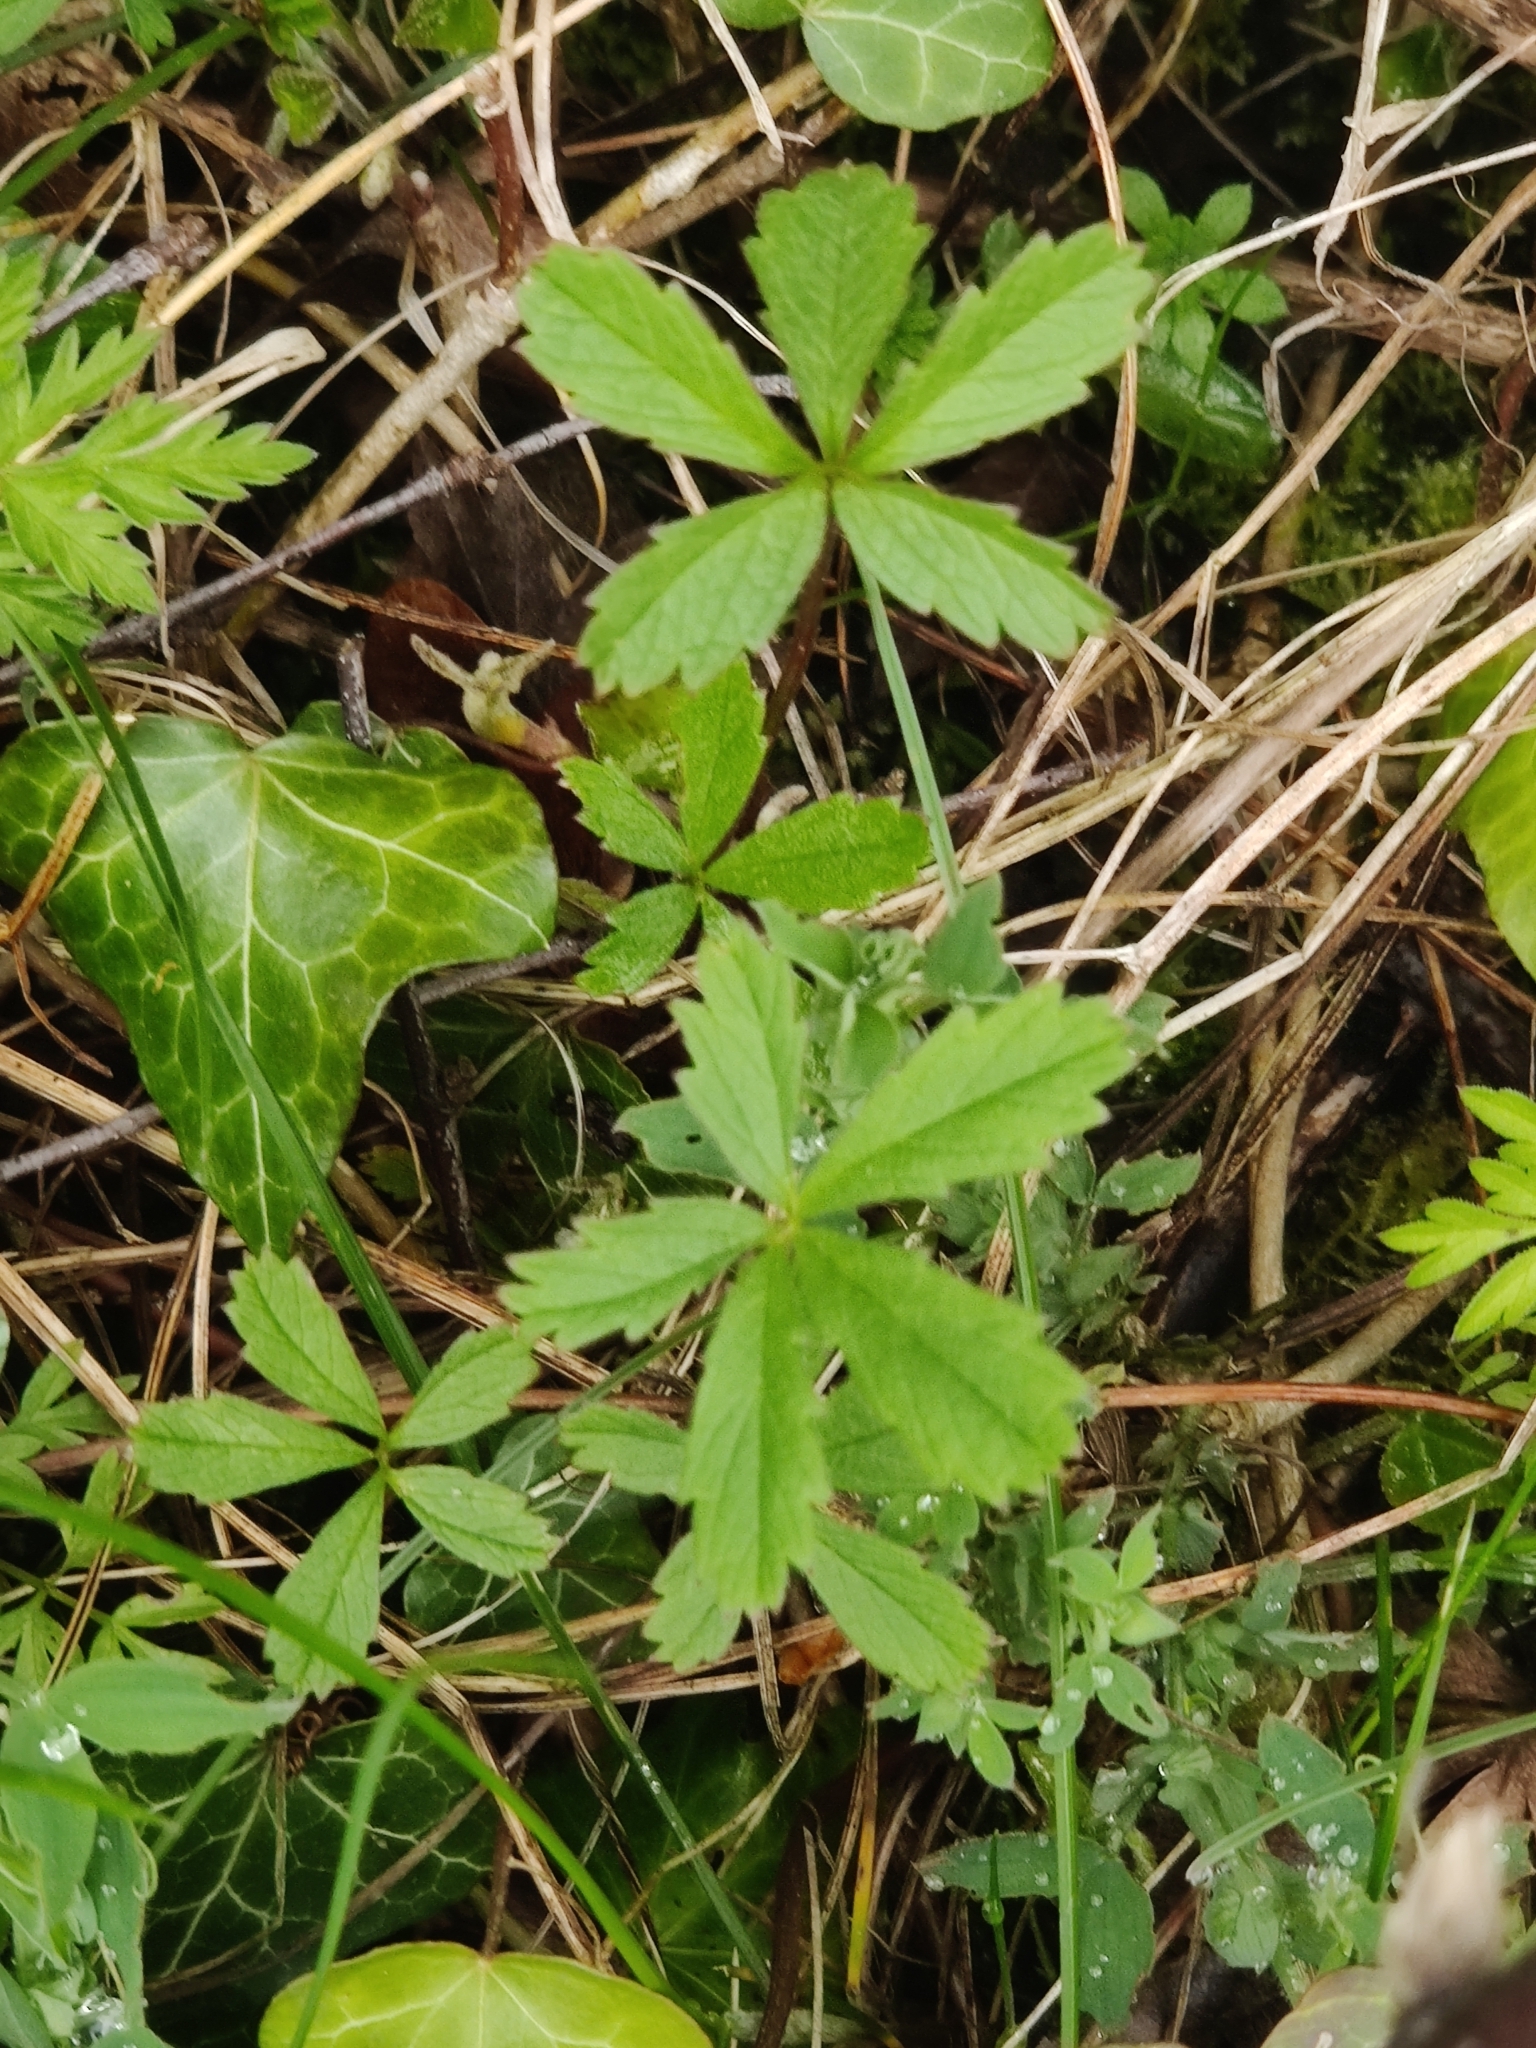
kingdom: Plantae
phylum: Tracheophyta
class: Magnoliopsida
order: Rosales
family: Rosaceae
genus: Potentilla
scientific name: Potentilla reptans
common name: Creeping cinquefoil
